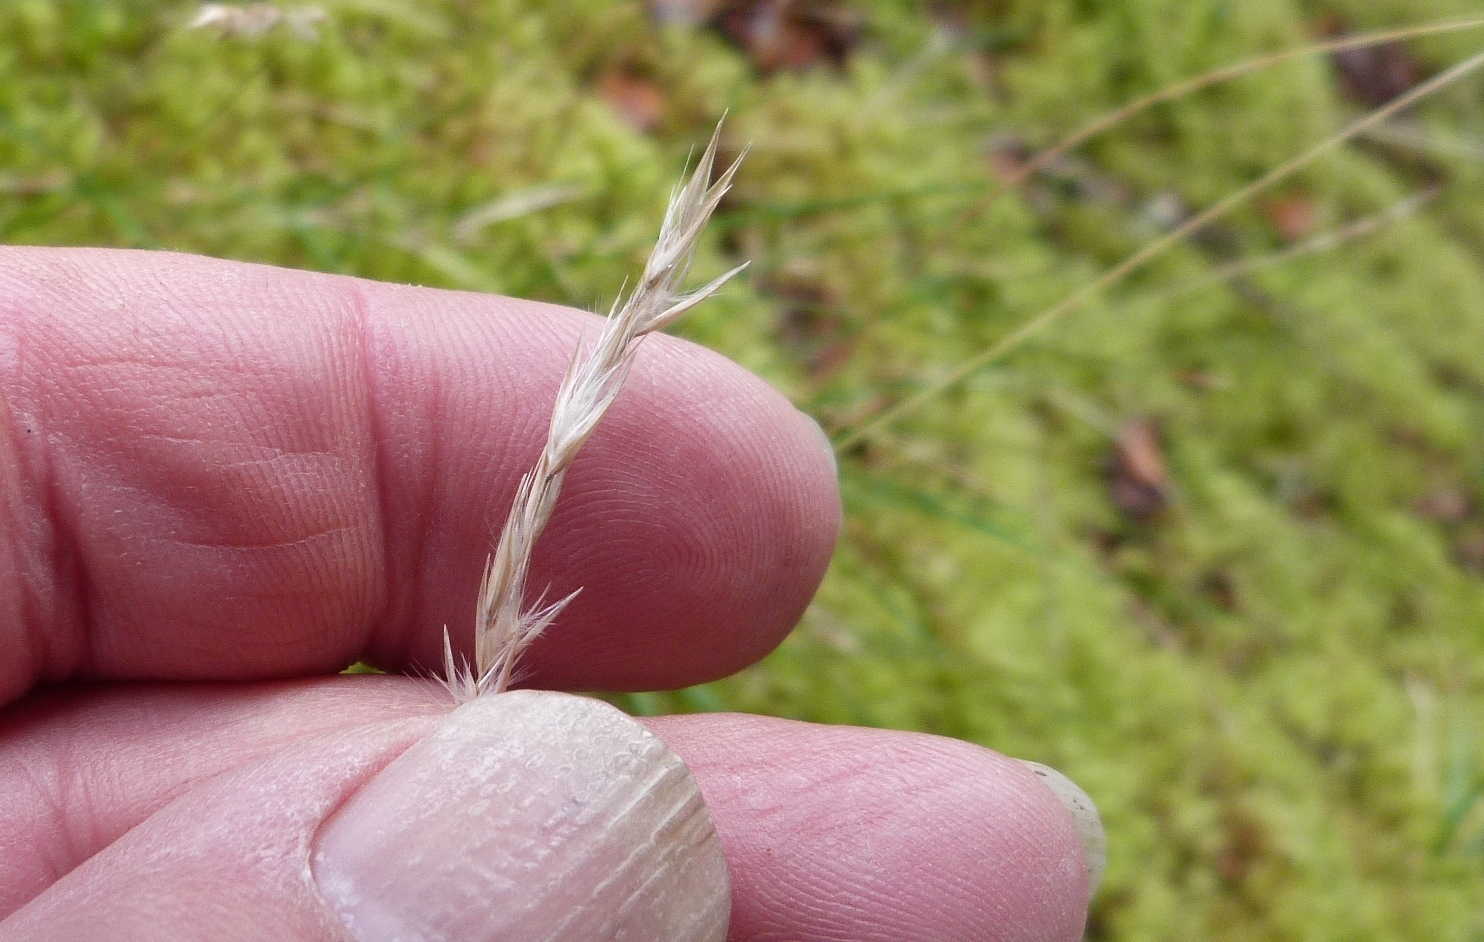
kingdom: Plantae
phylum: Tracheophyta
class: Liliopsida
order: Poales
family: Poaceae
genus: Rytidosperma
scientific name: Rytidosperma gracile
